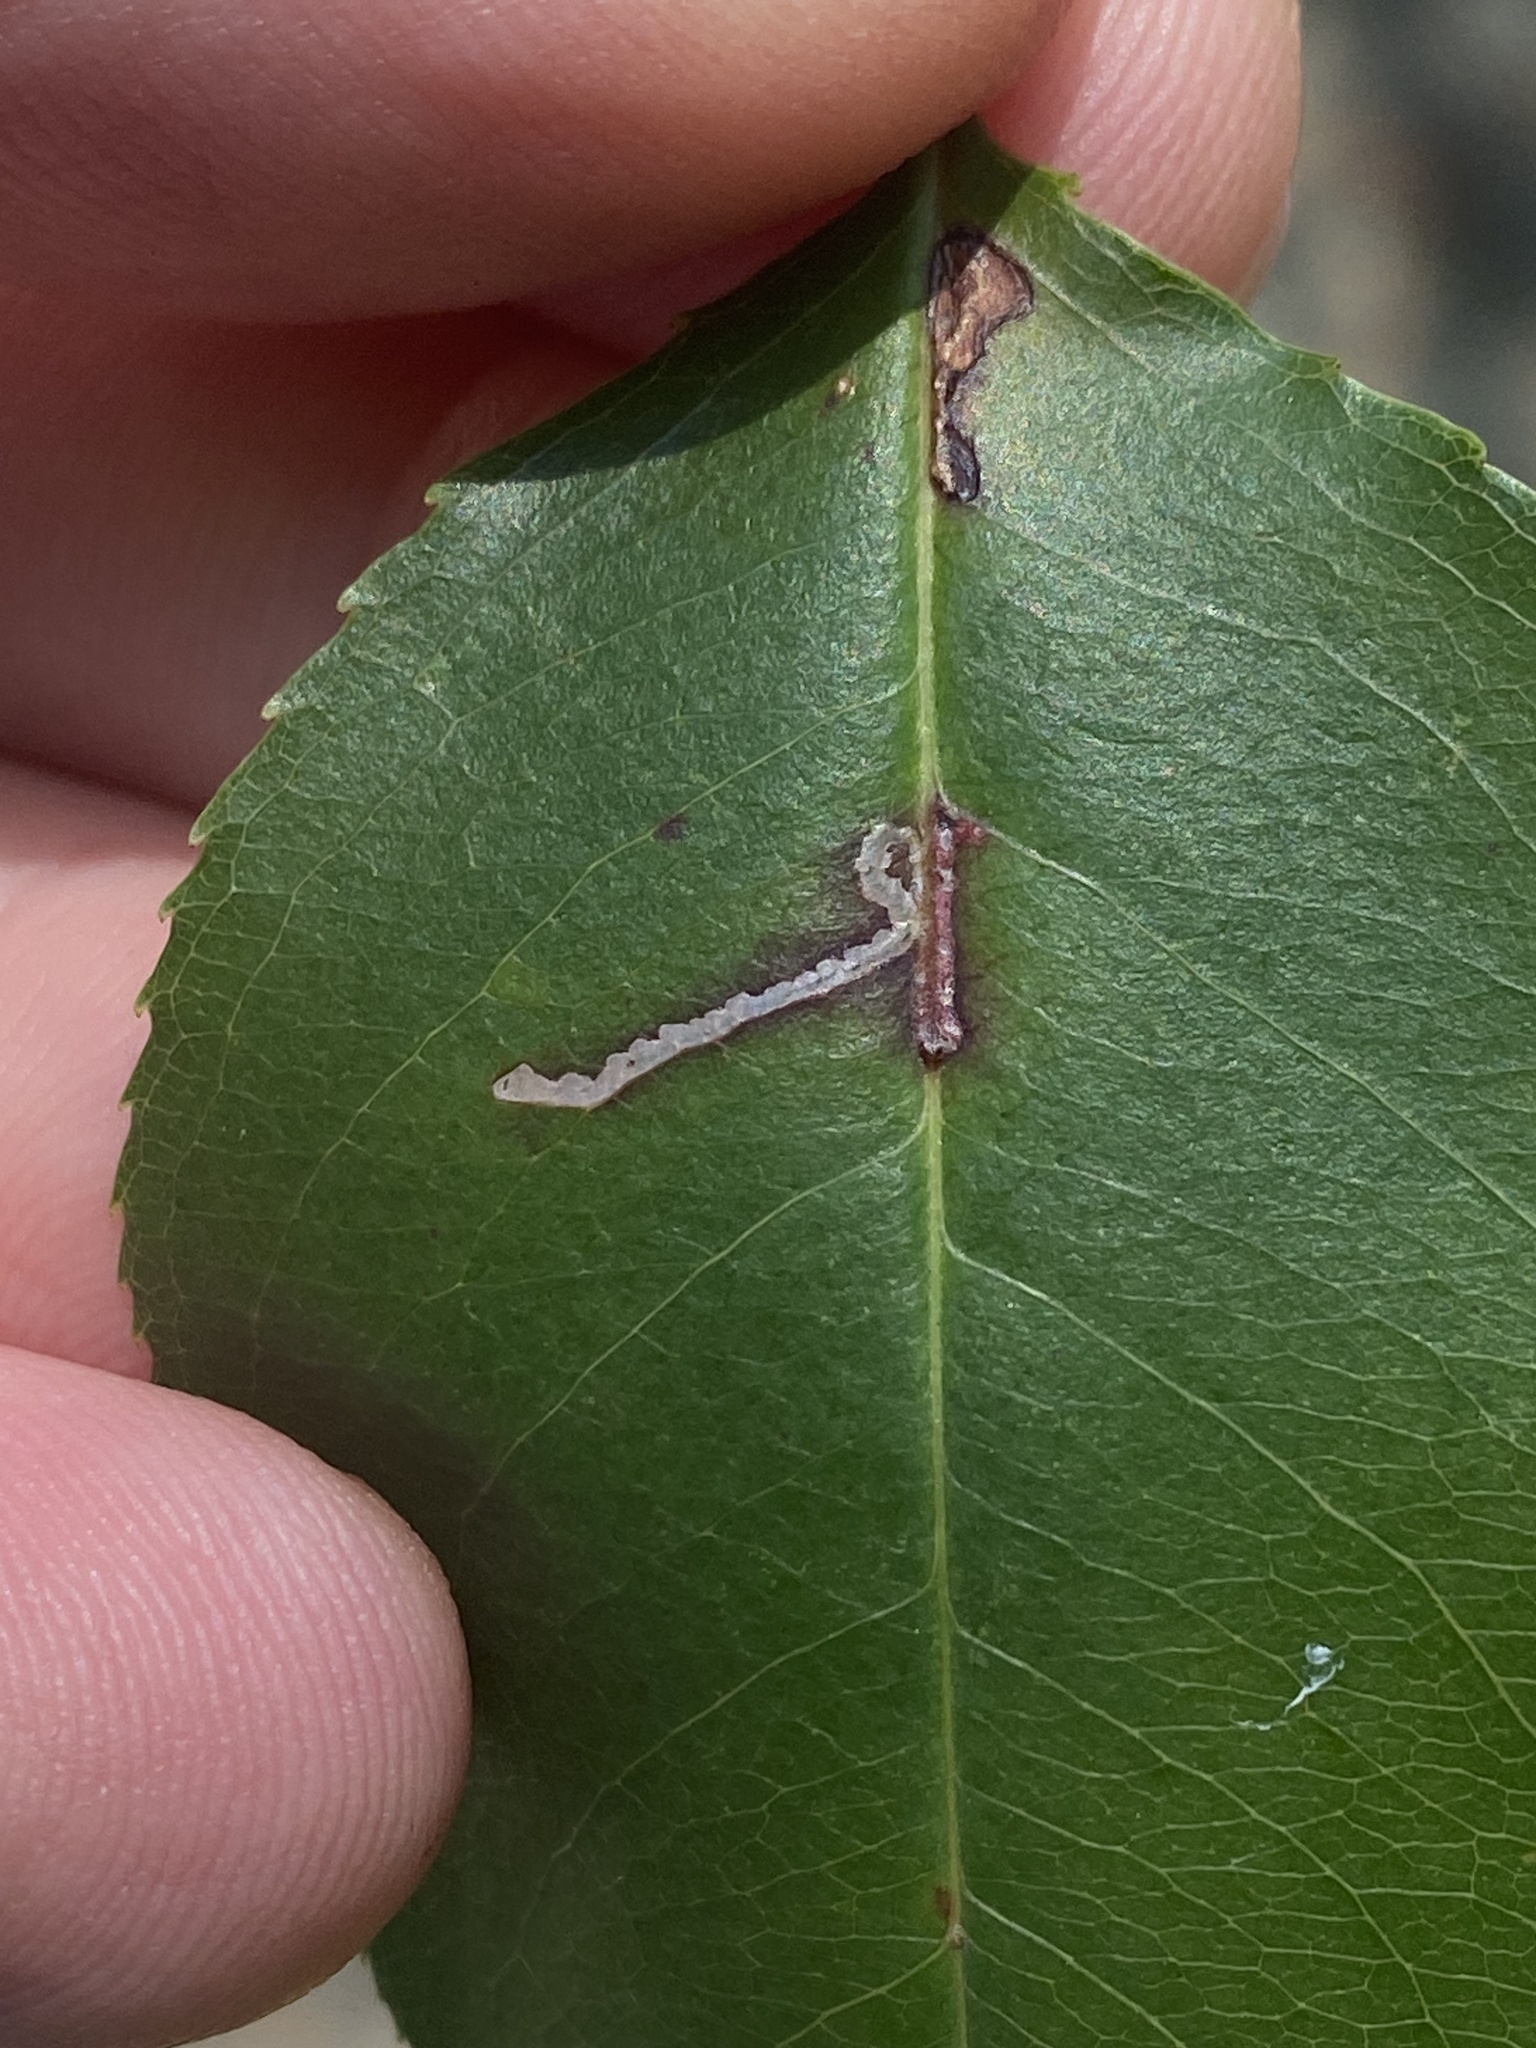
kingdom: Animalia
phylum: Arthropoda
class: Insecta
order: Lepidoptera
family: Bucculatricidae
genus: Bucculatrix
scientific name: Bucculatrix pomifoliella
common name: Apple skeletonizer moth
